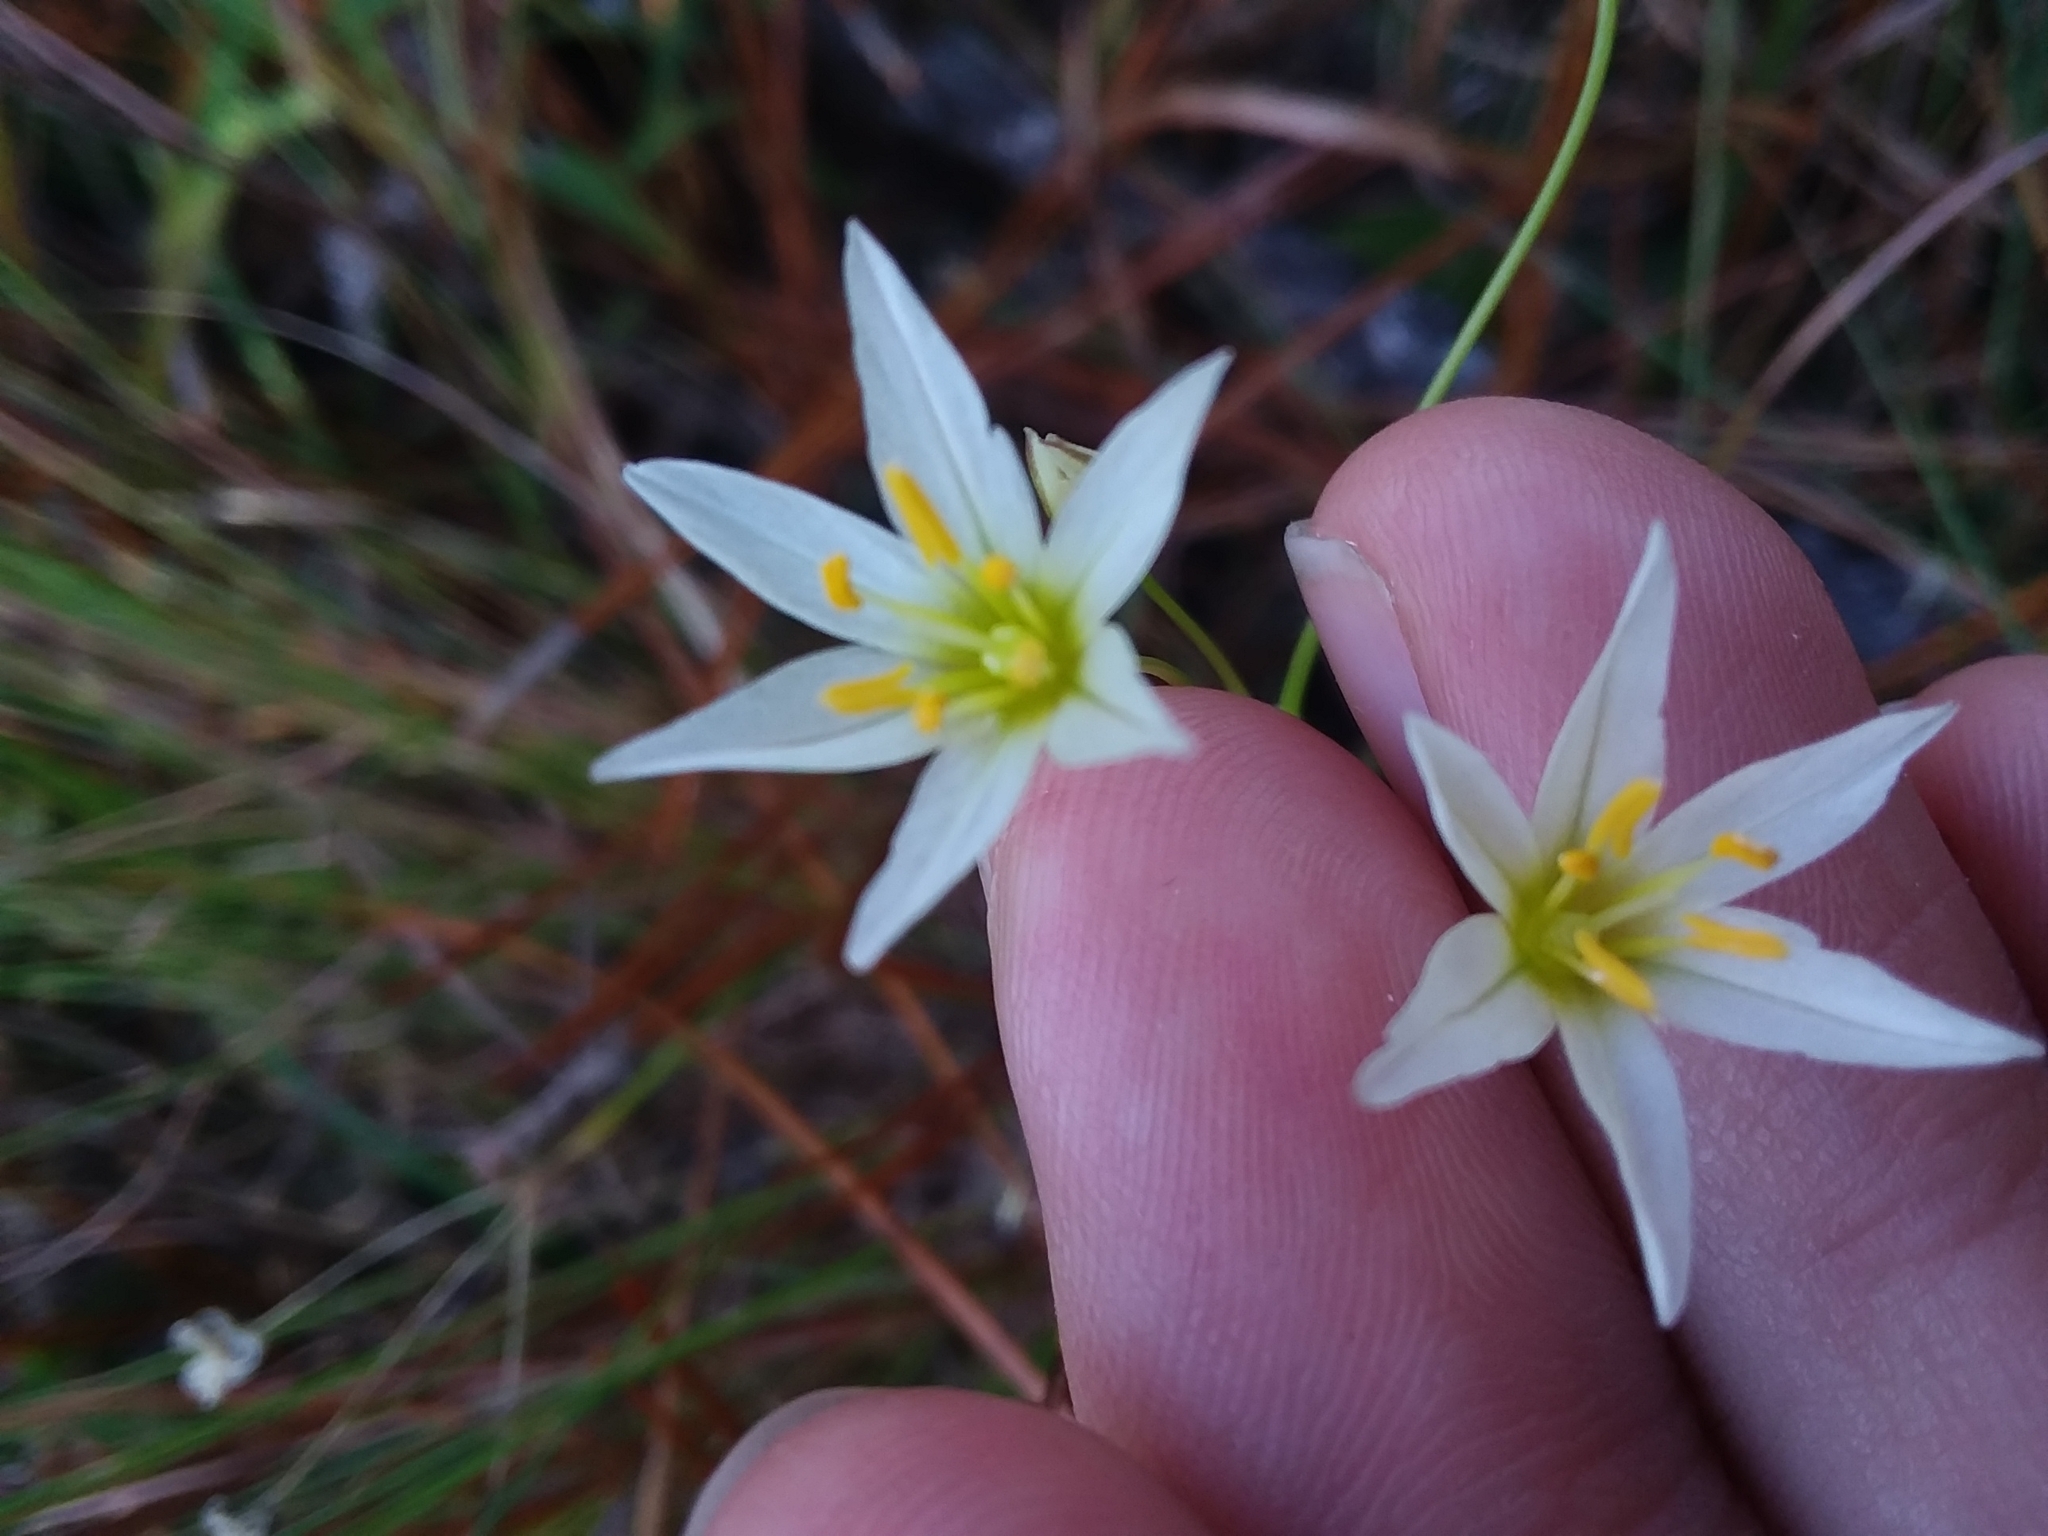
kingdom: Plantae
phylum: Tracheophyta
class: Liliopsida
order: Asparagales
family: Amaryllidaceae
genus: Nothoscordum
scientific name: Nothoscordum bivalve
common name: Crow-poison
